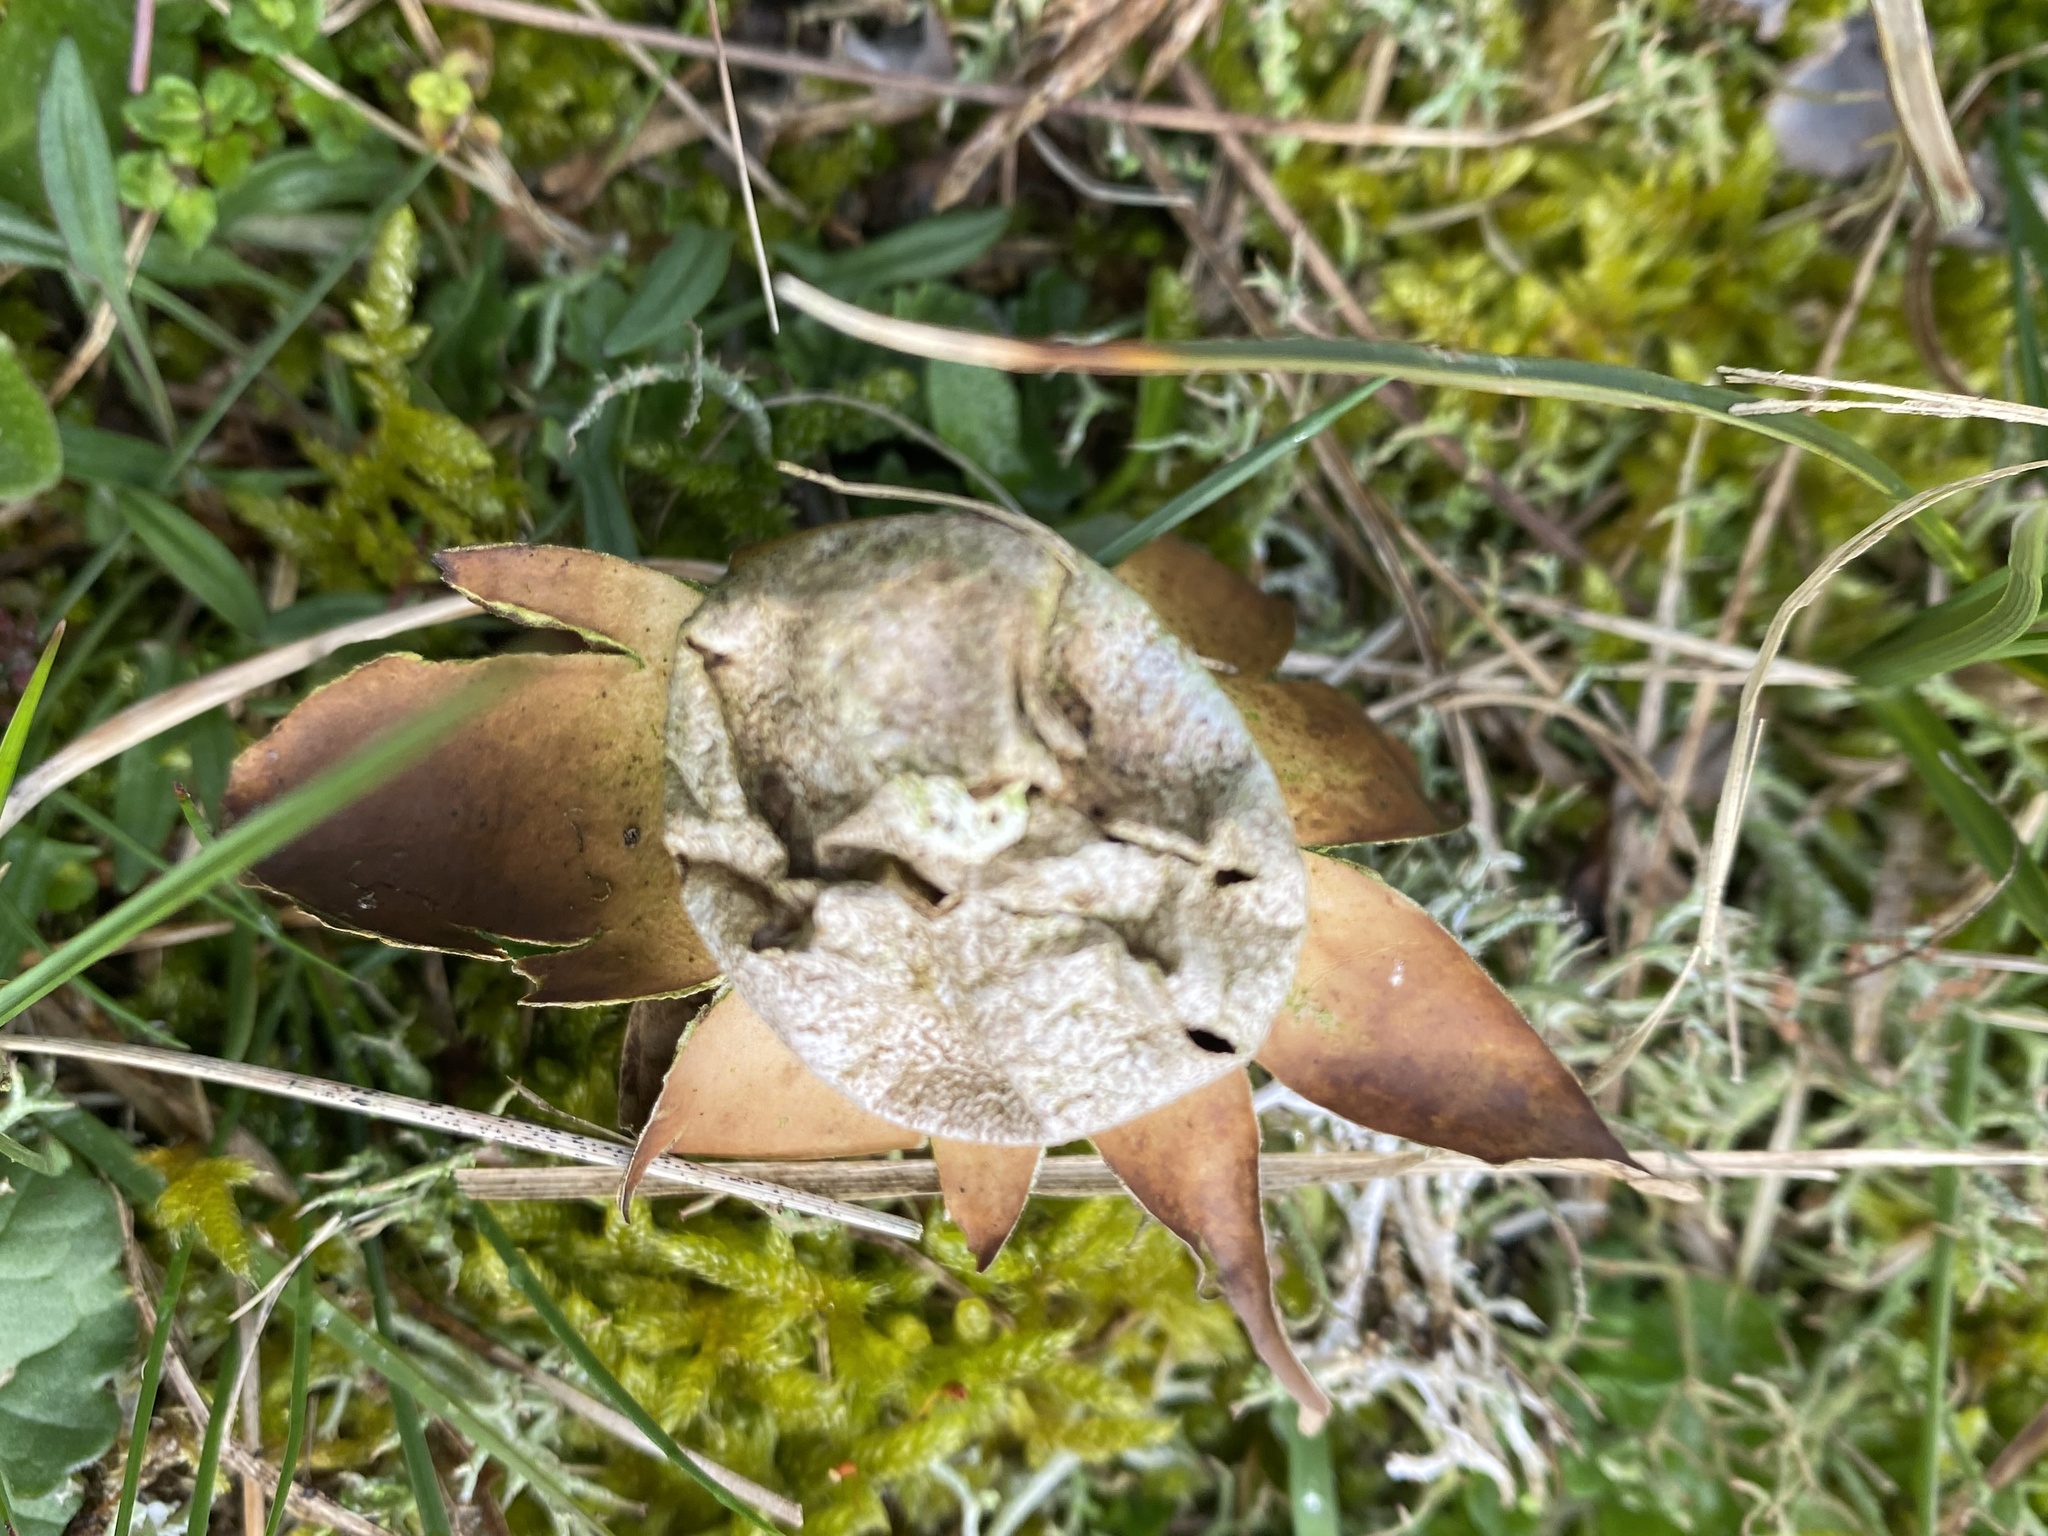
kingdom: Fungi
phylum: Basidiomycota
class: Agaricomycetes
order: Geastrales
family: Geastraceae
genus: Myriostoma
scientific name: Myriostoma coliforme
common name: Pepper pot
